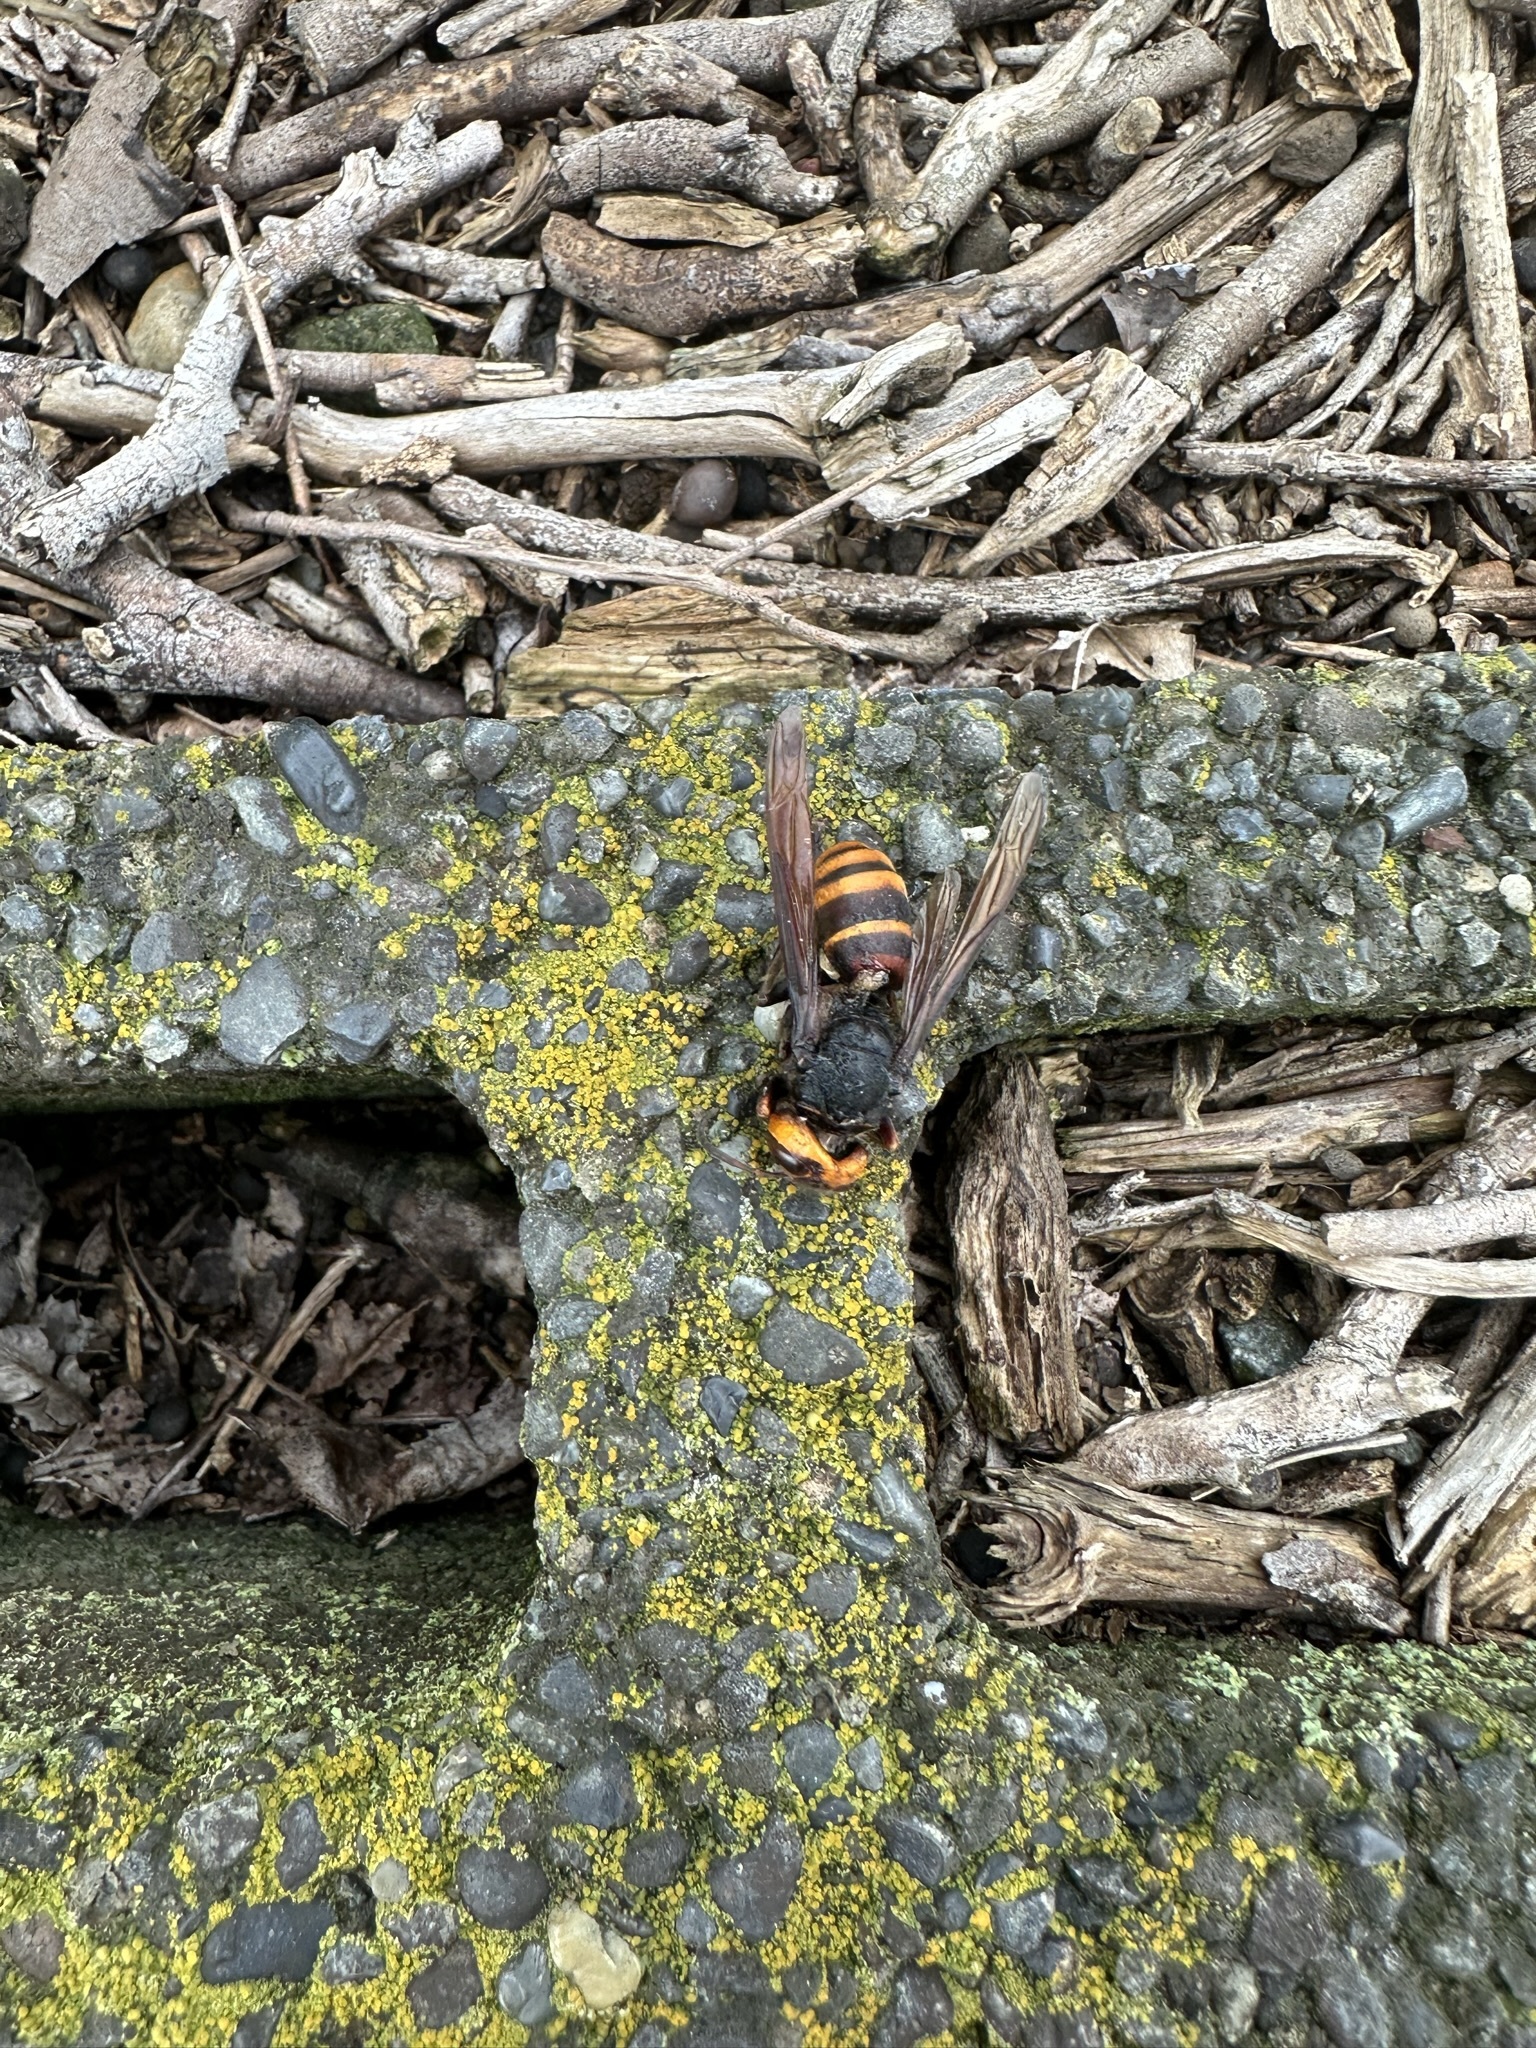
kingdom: Animalia
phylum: Arthropoda
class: Insecta
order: Hymenoptera
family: Vespidae
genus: Vespa
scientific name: Vespa analis
